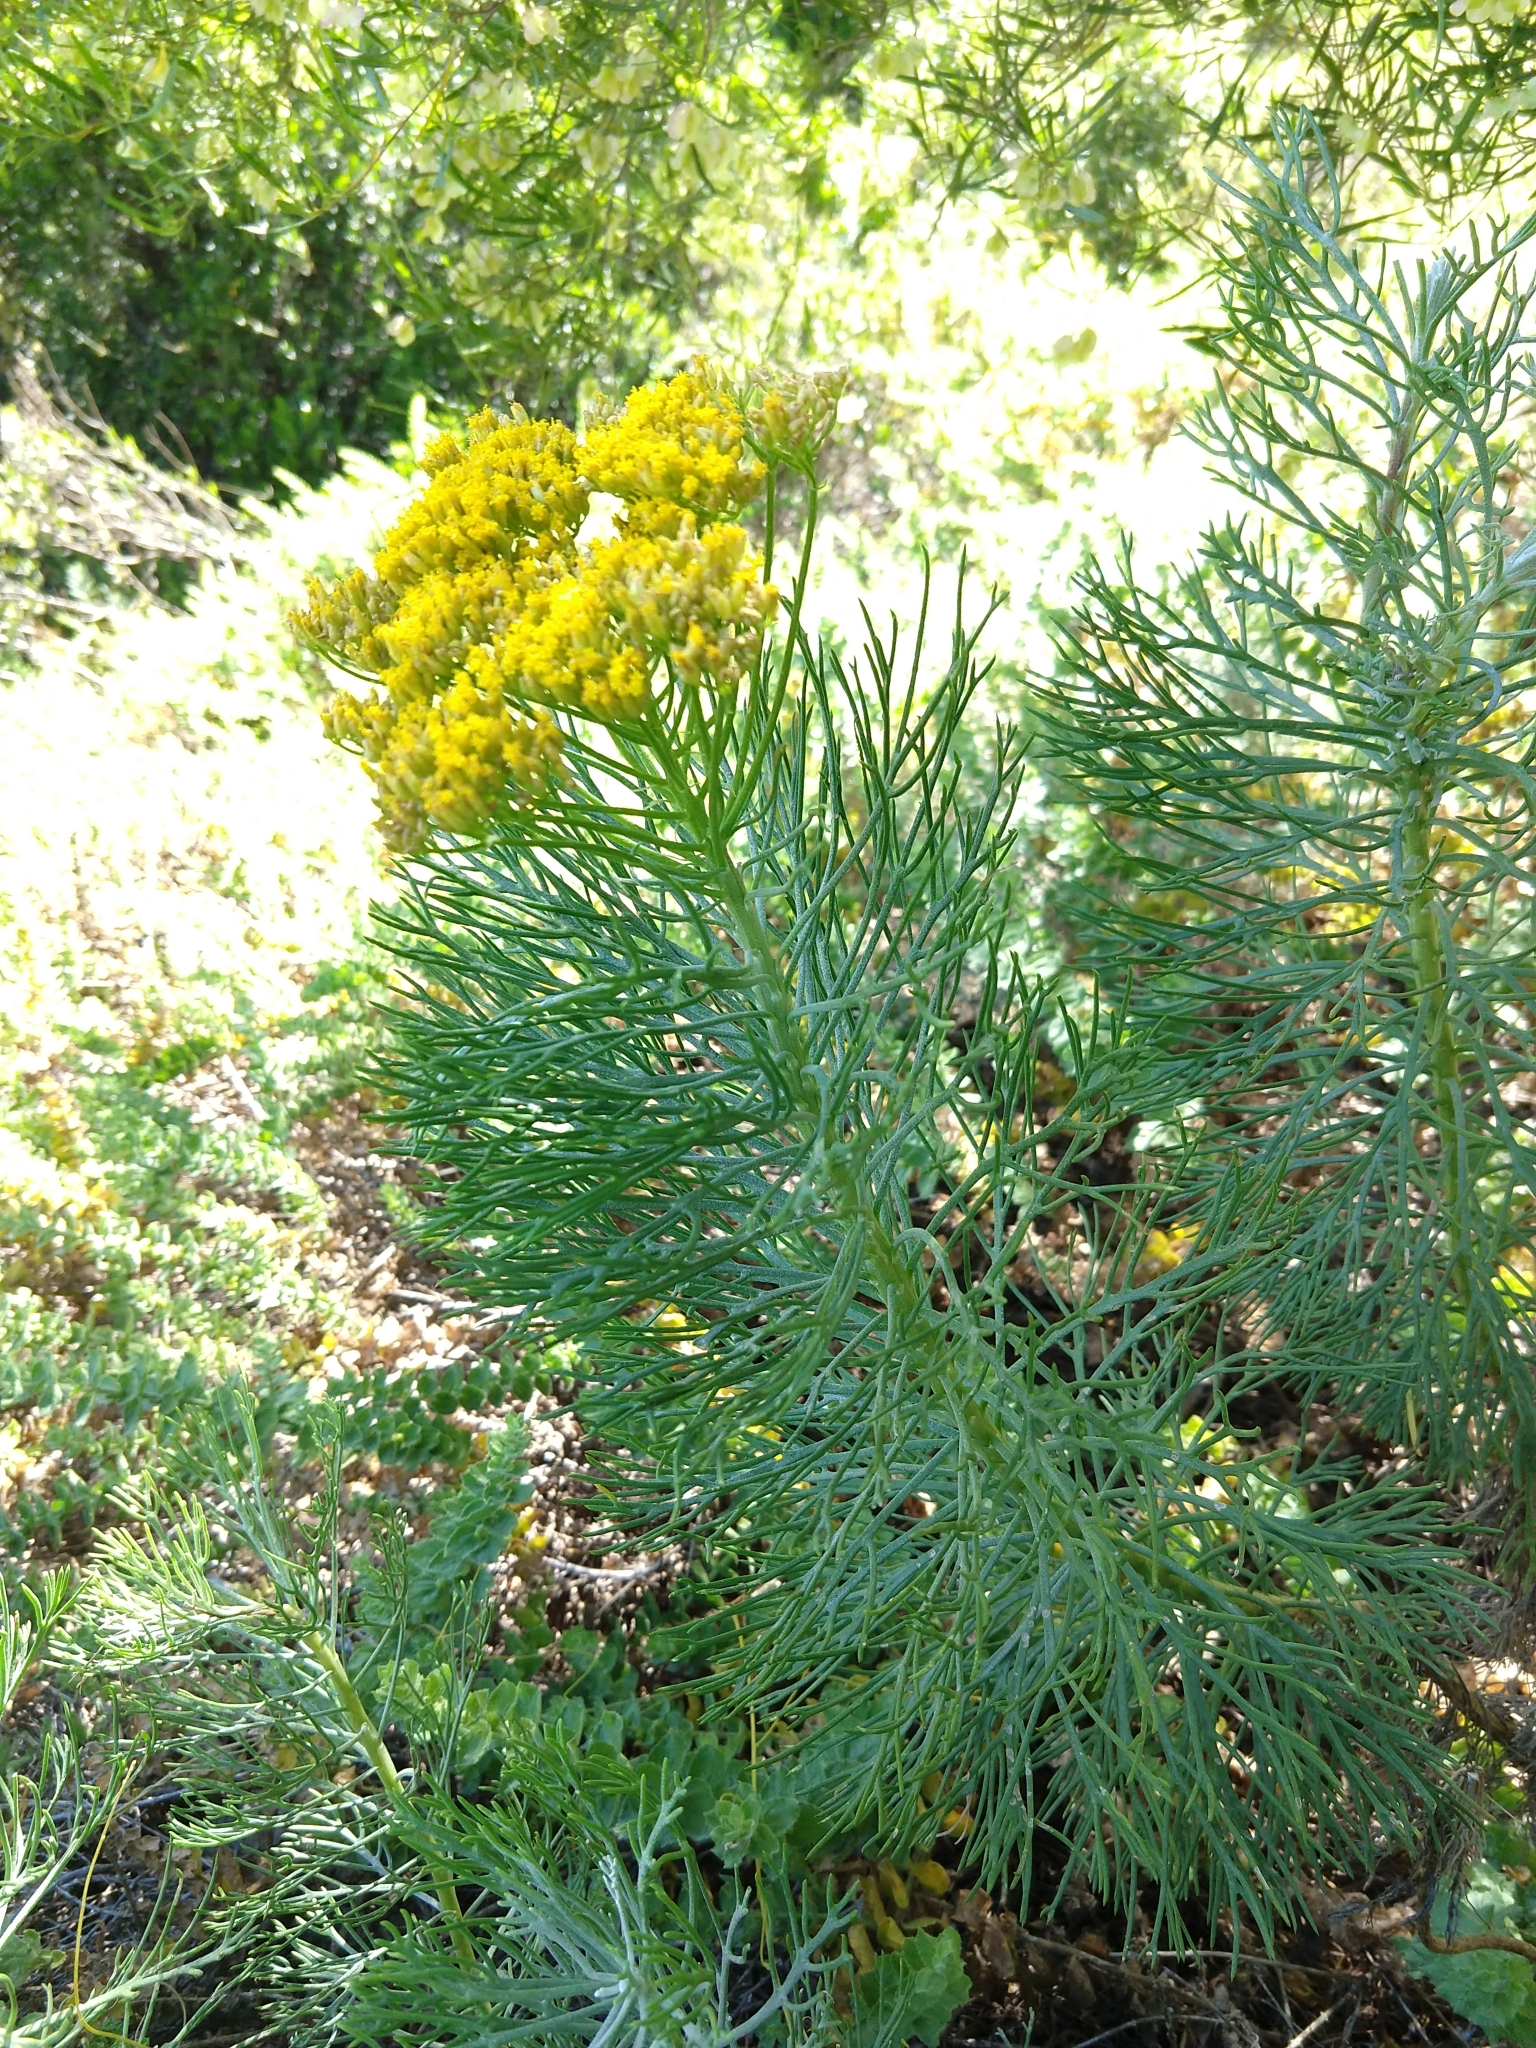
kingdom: Plantae
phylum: Tracheophyta
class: Magnoliopsida
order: Asterales
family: Asteraceae
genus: Hymenolepis
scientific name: Hymenolepis crithmifolia
